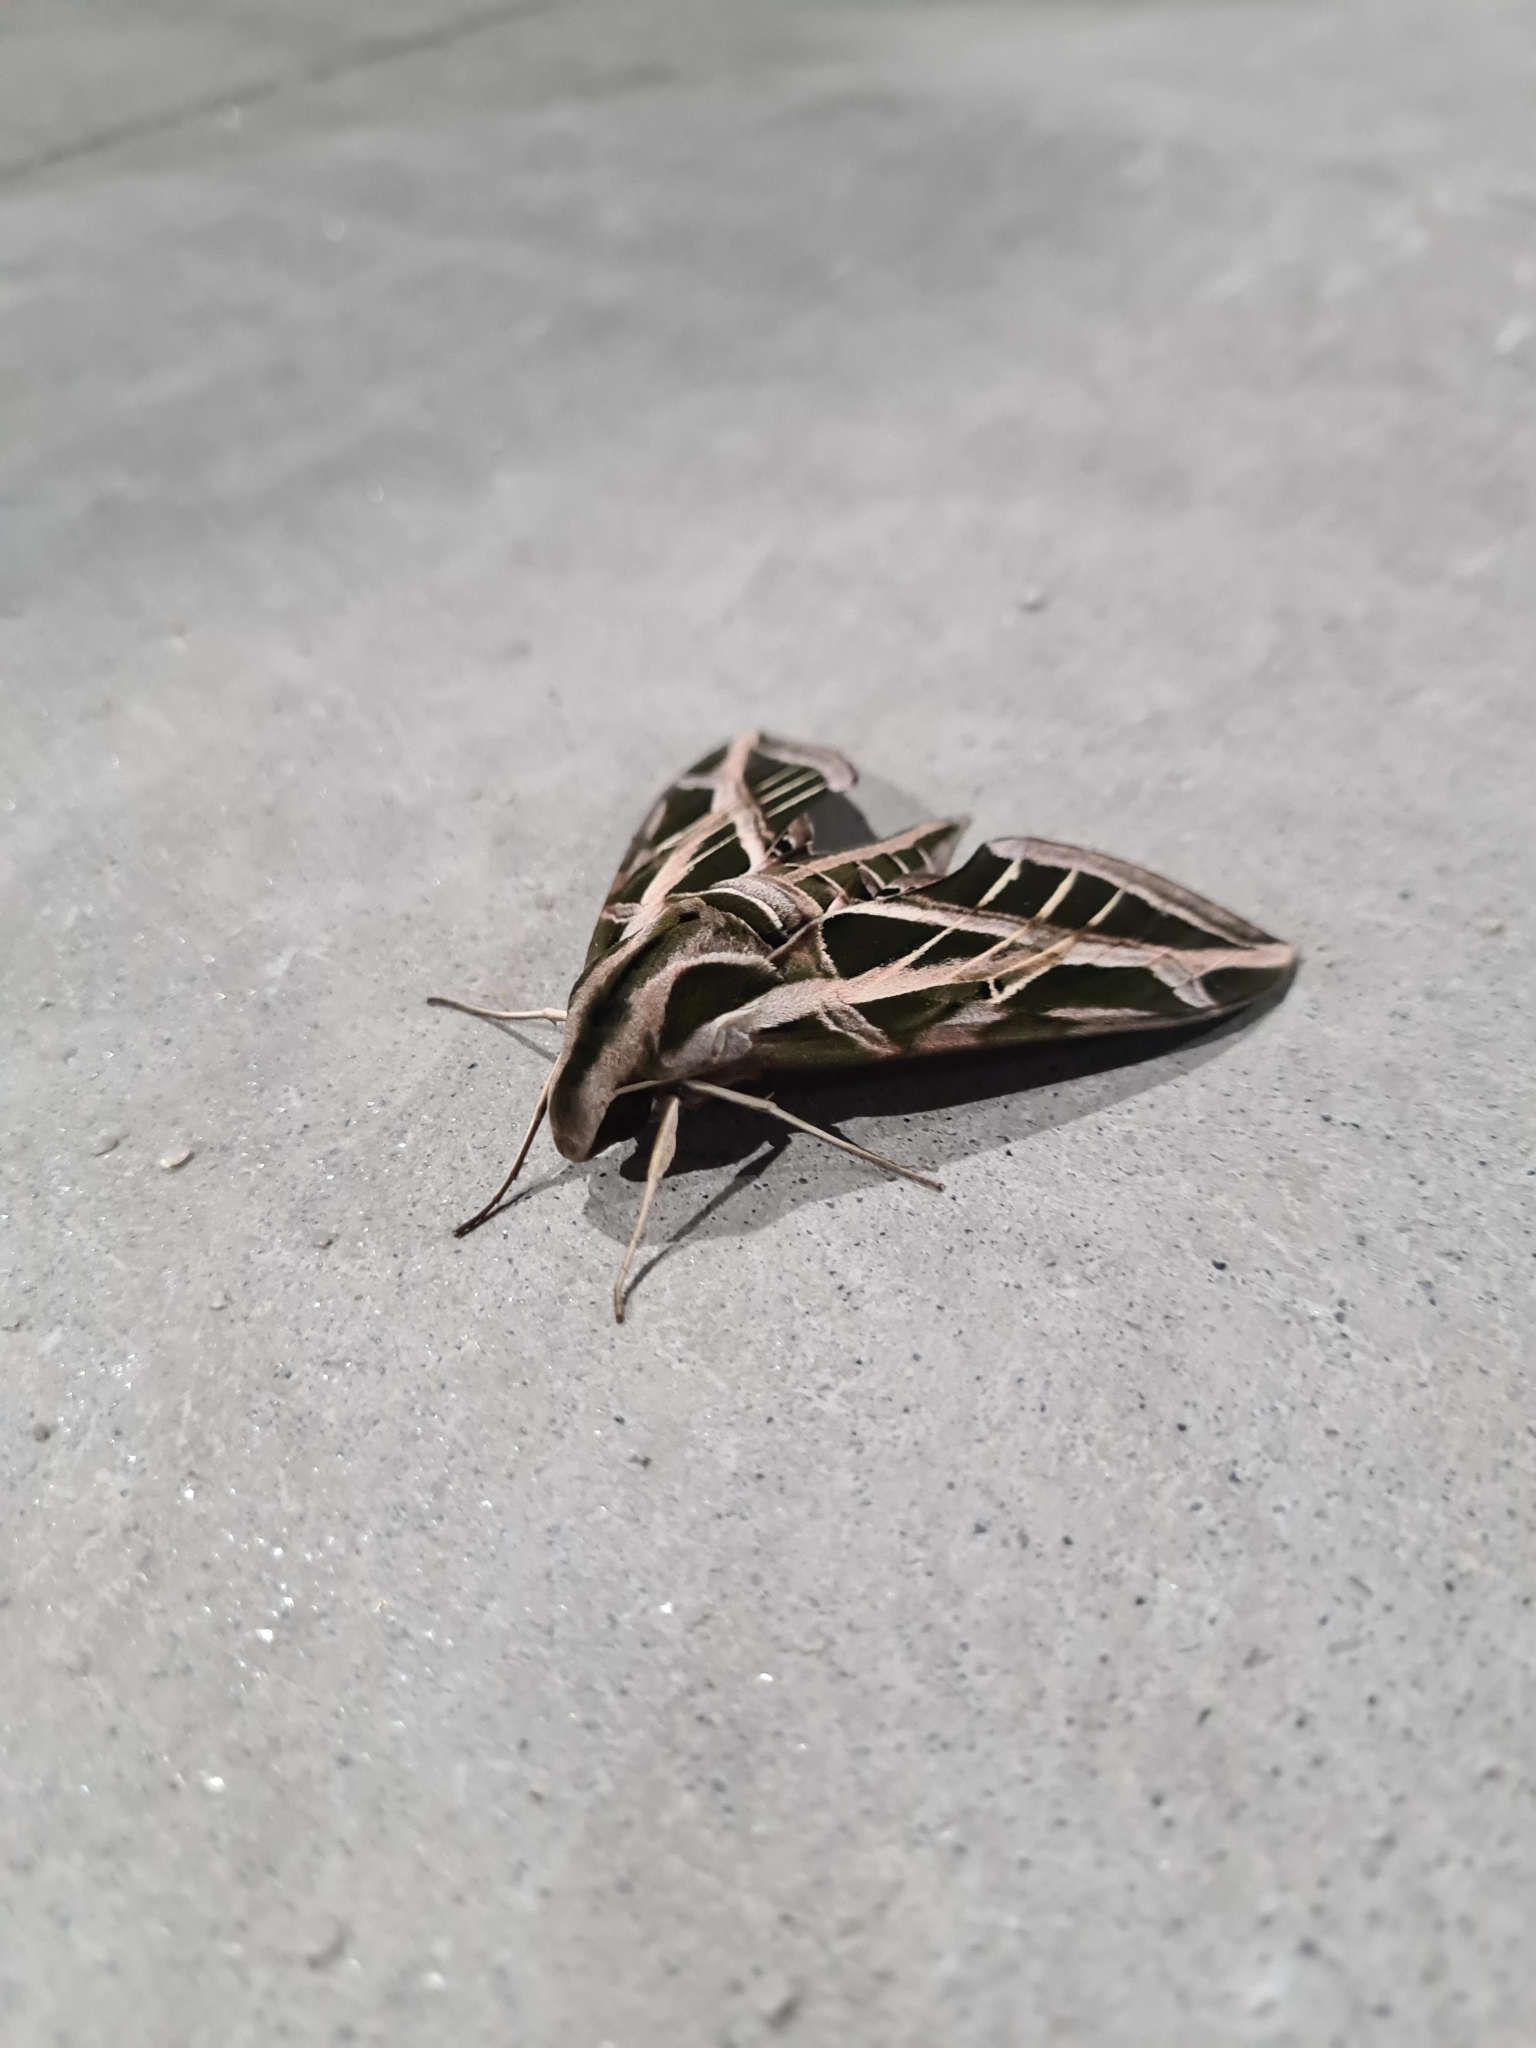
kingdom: Animalia
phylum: Arthropoda
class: Insecta
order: Lepidoptera
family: Sphingidae
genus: Eumorpha
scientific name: Eumorpha vitis
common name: Vine sphinx
